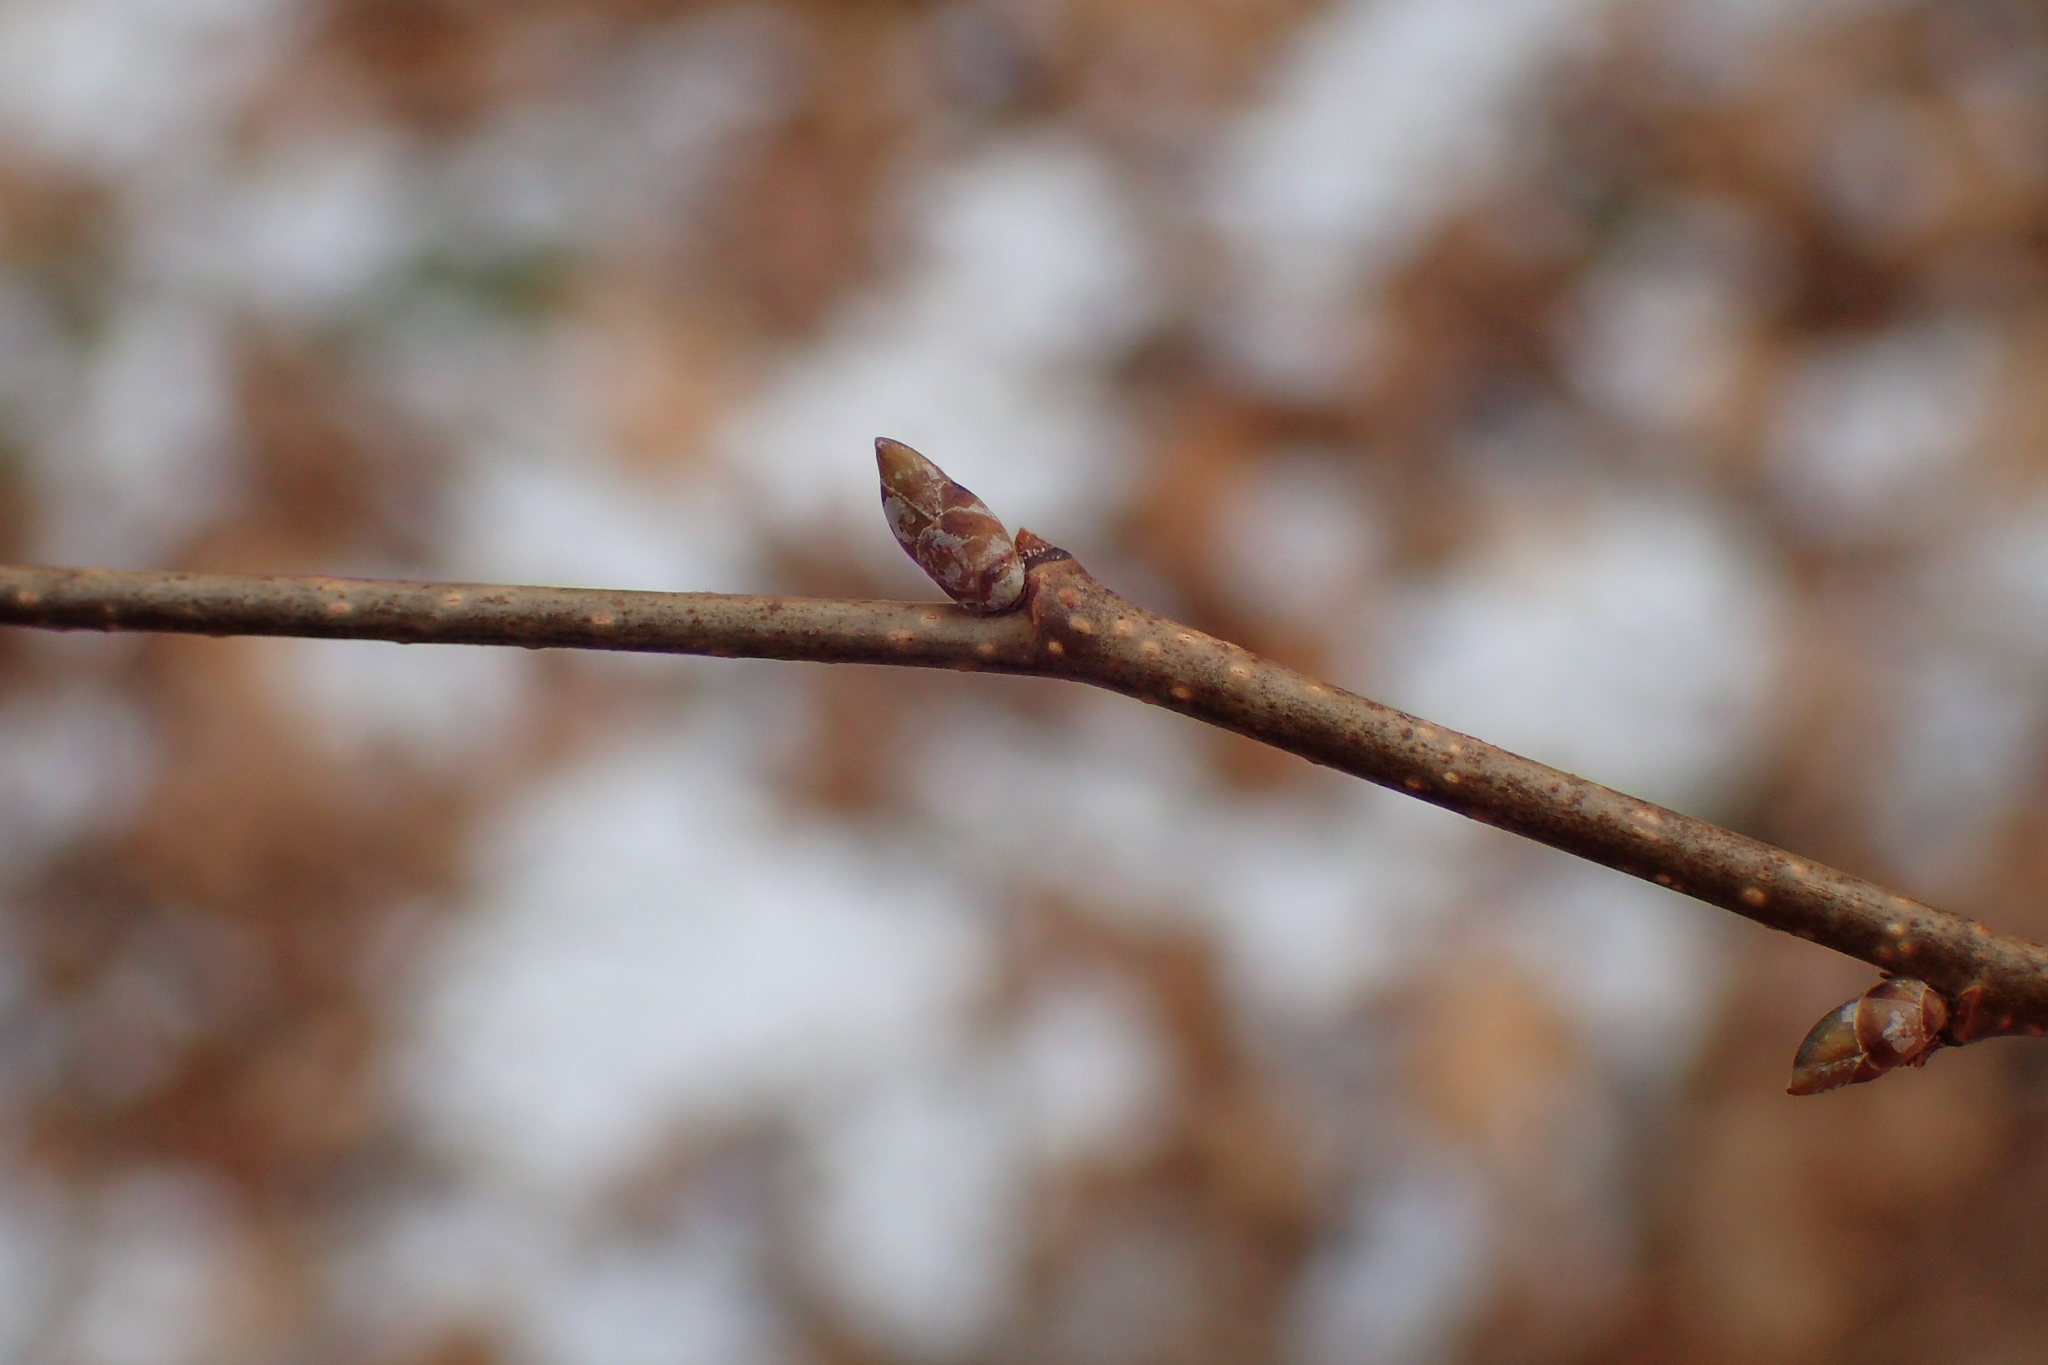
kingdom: Plantae
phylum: Tracheophyta
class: Magnoliopsida
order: Fagales
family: Betulaceae
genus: Ostrya
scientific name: Ostrya virginiana
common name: Ironwood
